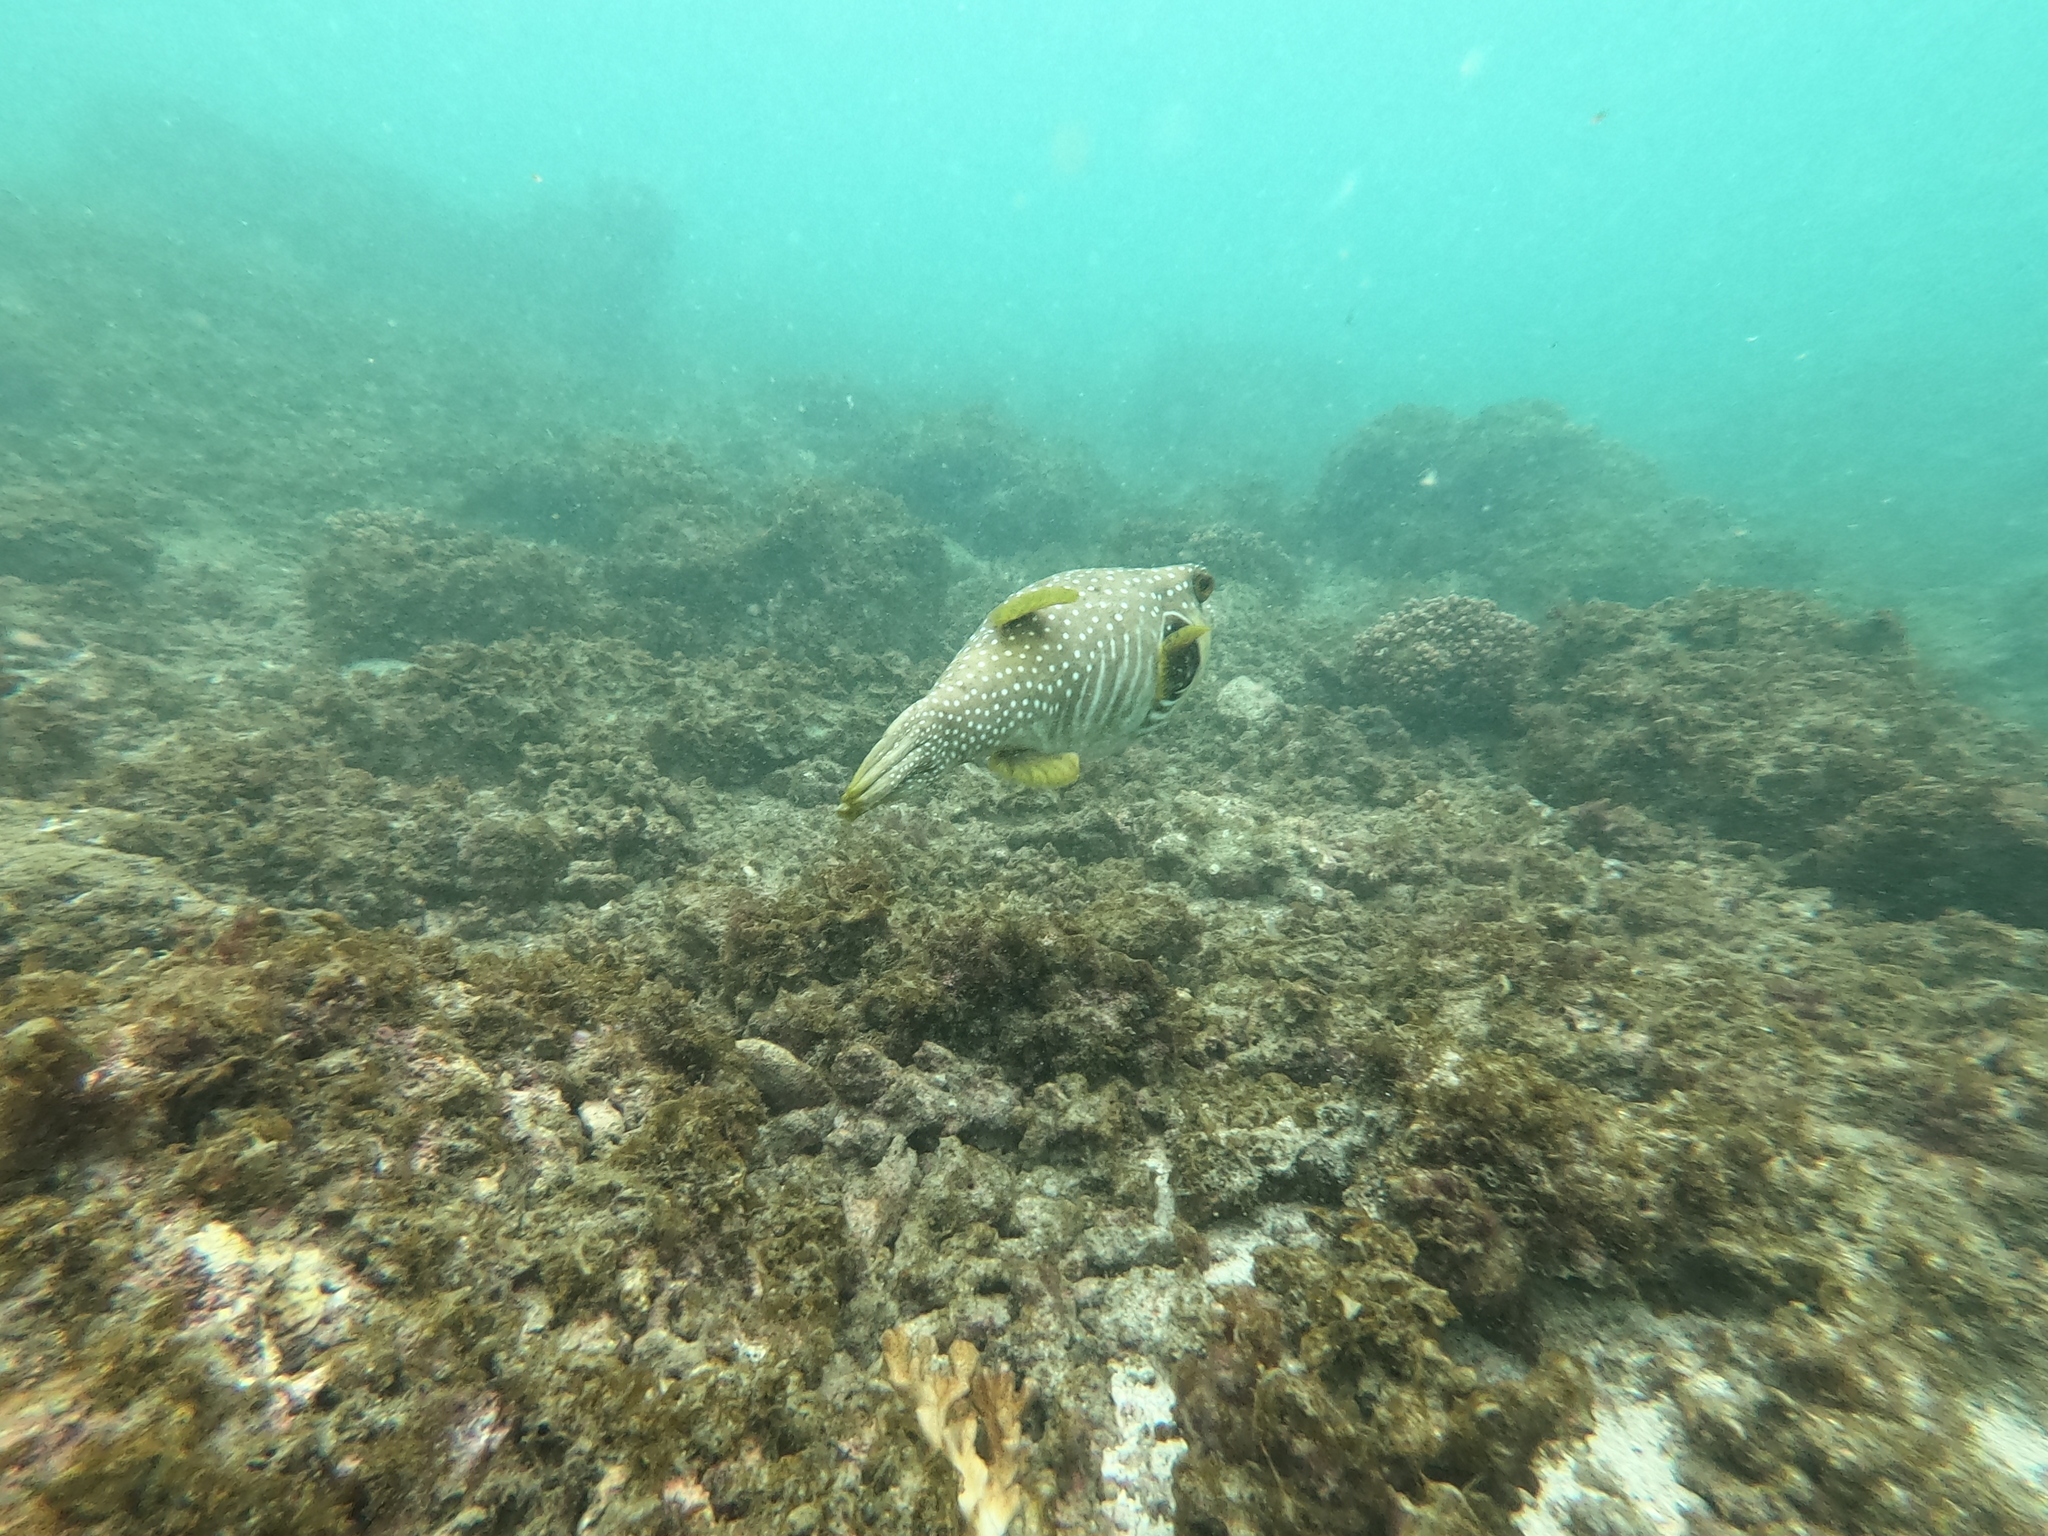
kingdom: Animalia
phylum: Chordata
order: Tetraodontiformes
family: Tetraodontidae
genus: Arothron
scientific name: Arothron hispidus
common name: Stripebelly puffer
